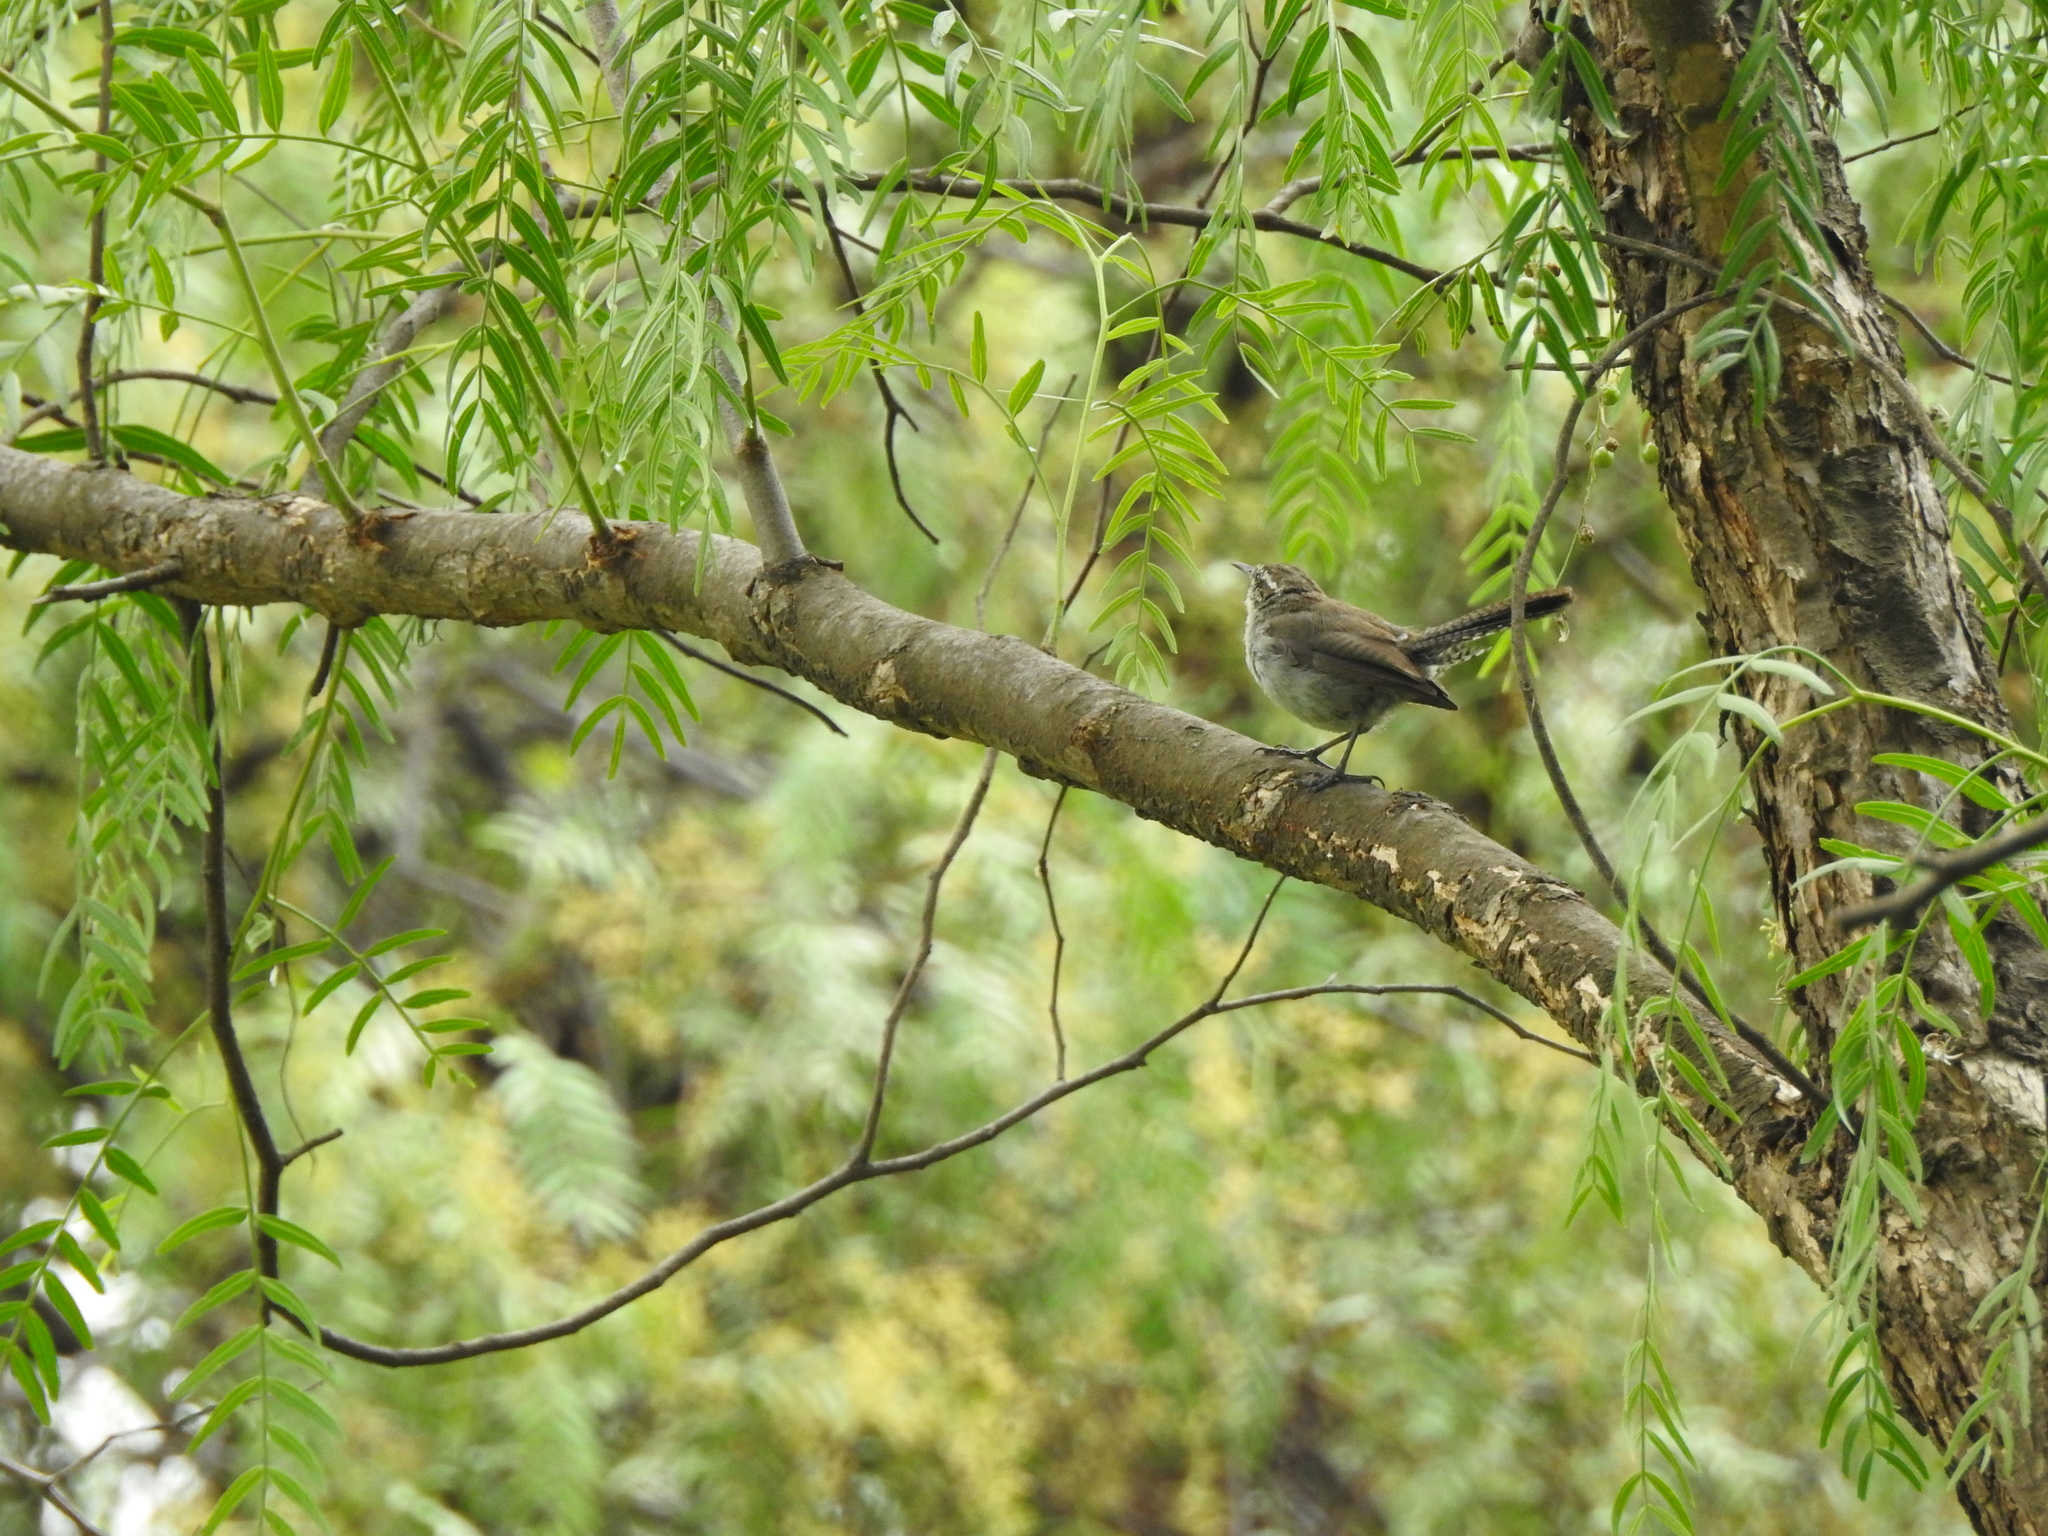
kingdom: Animalia
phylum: Chordata
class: Aves
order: Passeriformes
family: Troglodytidae
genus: Thryomanes
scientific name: Thryomanes bewickii
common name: Bewick's wren
